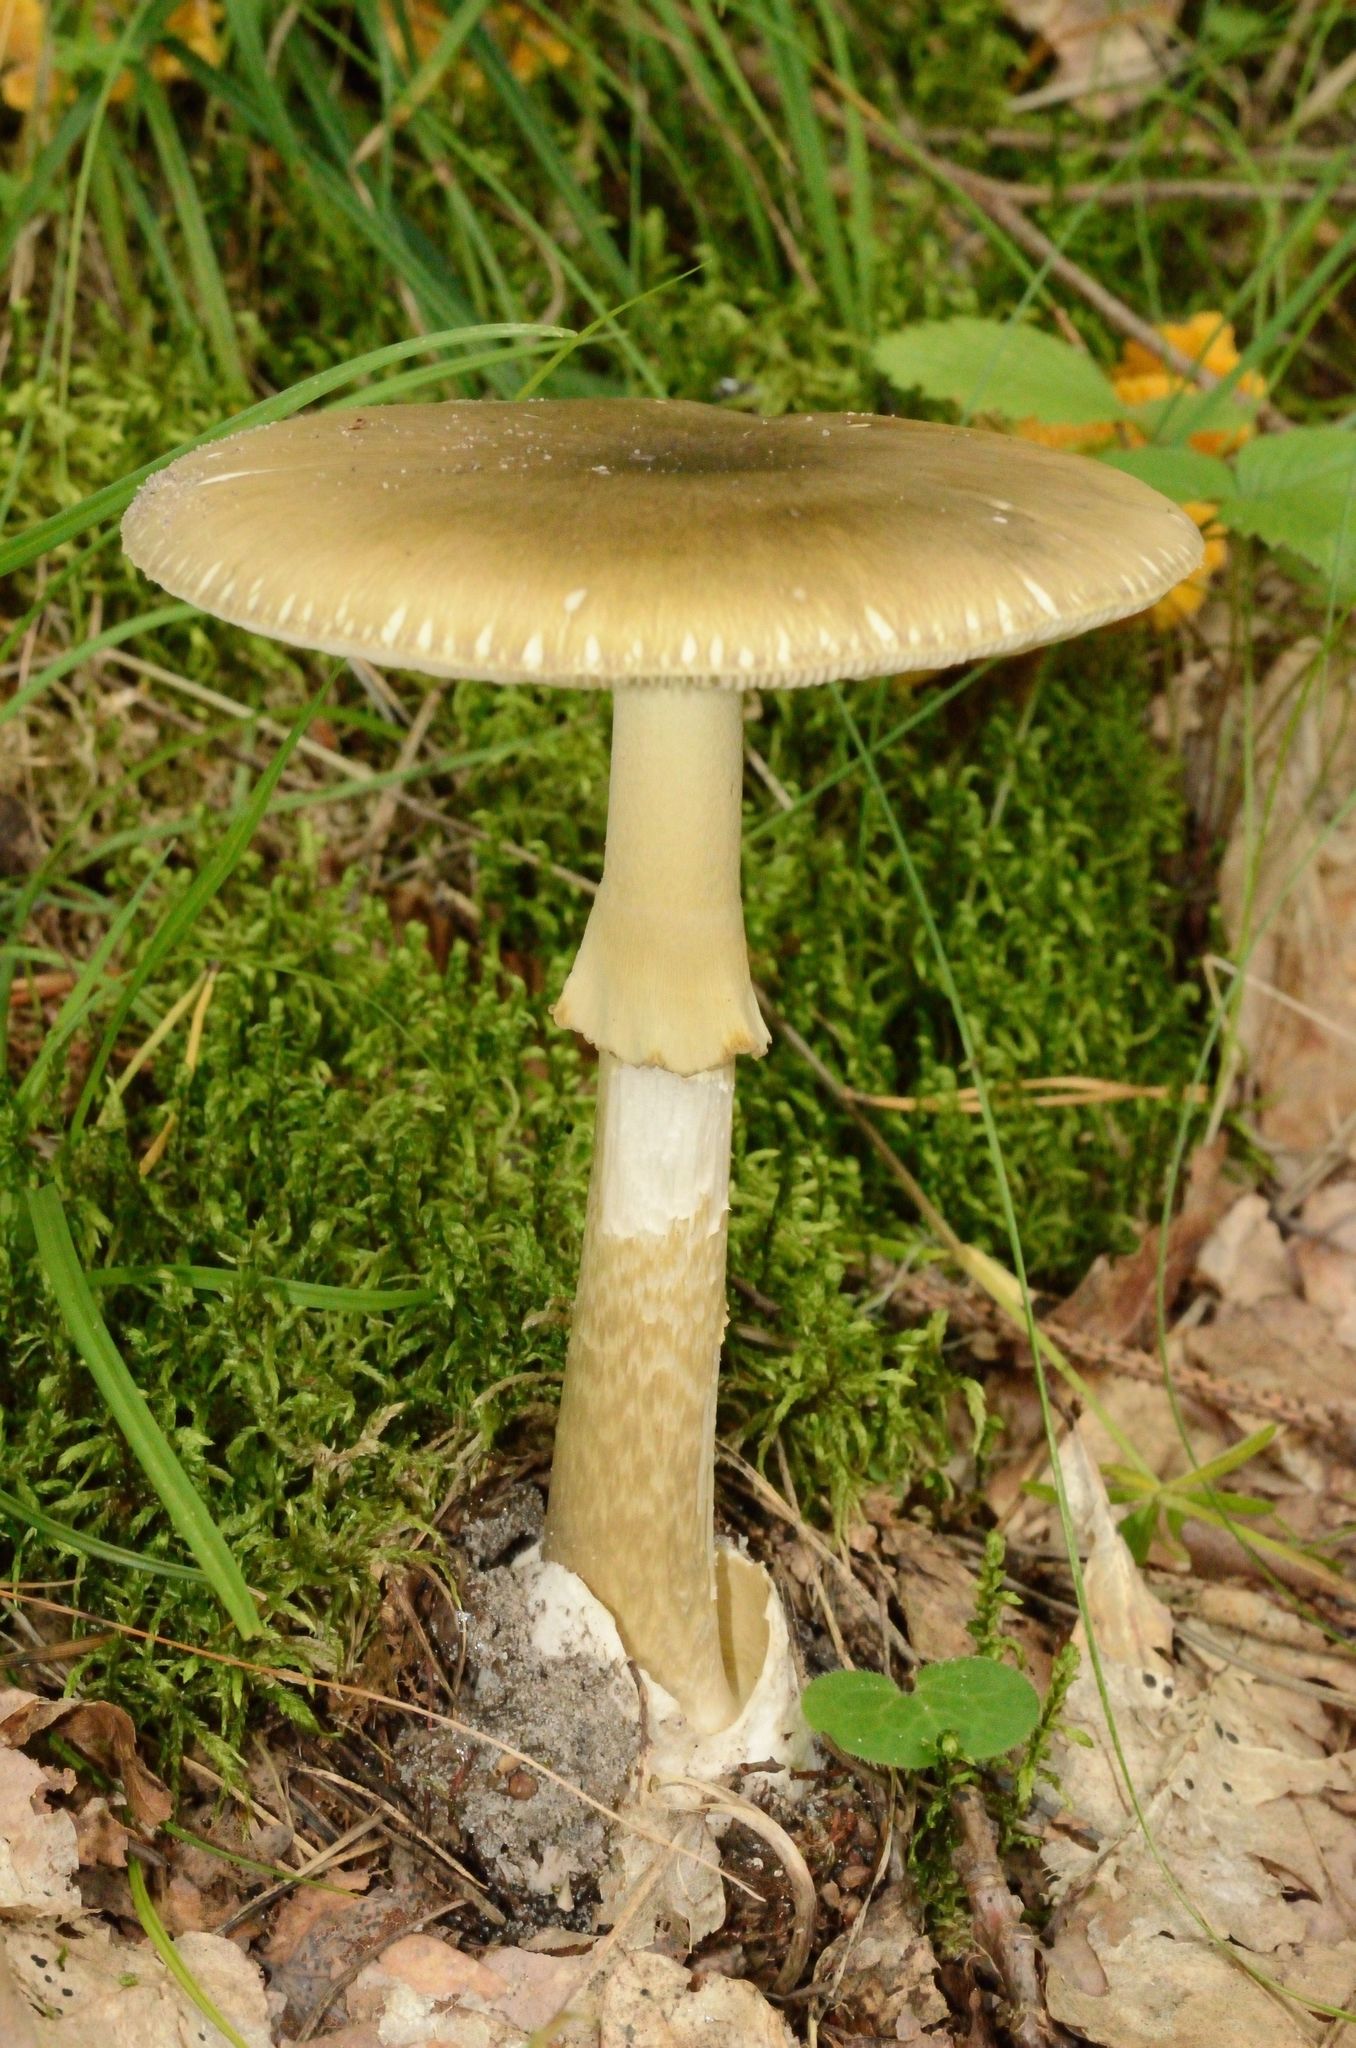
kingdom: Fungi
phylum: Basidiomycota
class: Agaricomycetes
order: Agaricales
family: Amanitaceae
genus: Amanita
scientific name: Amanita phalloides
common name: Death cap
